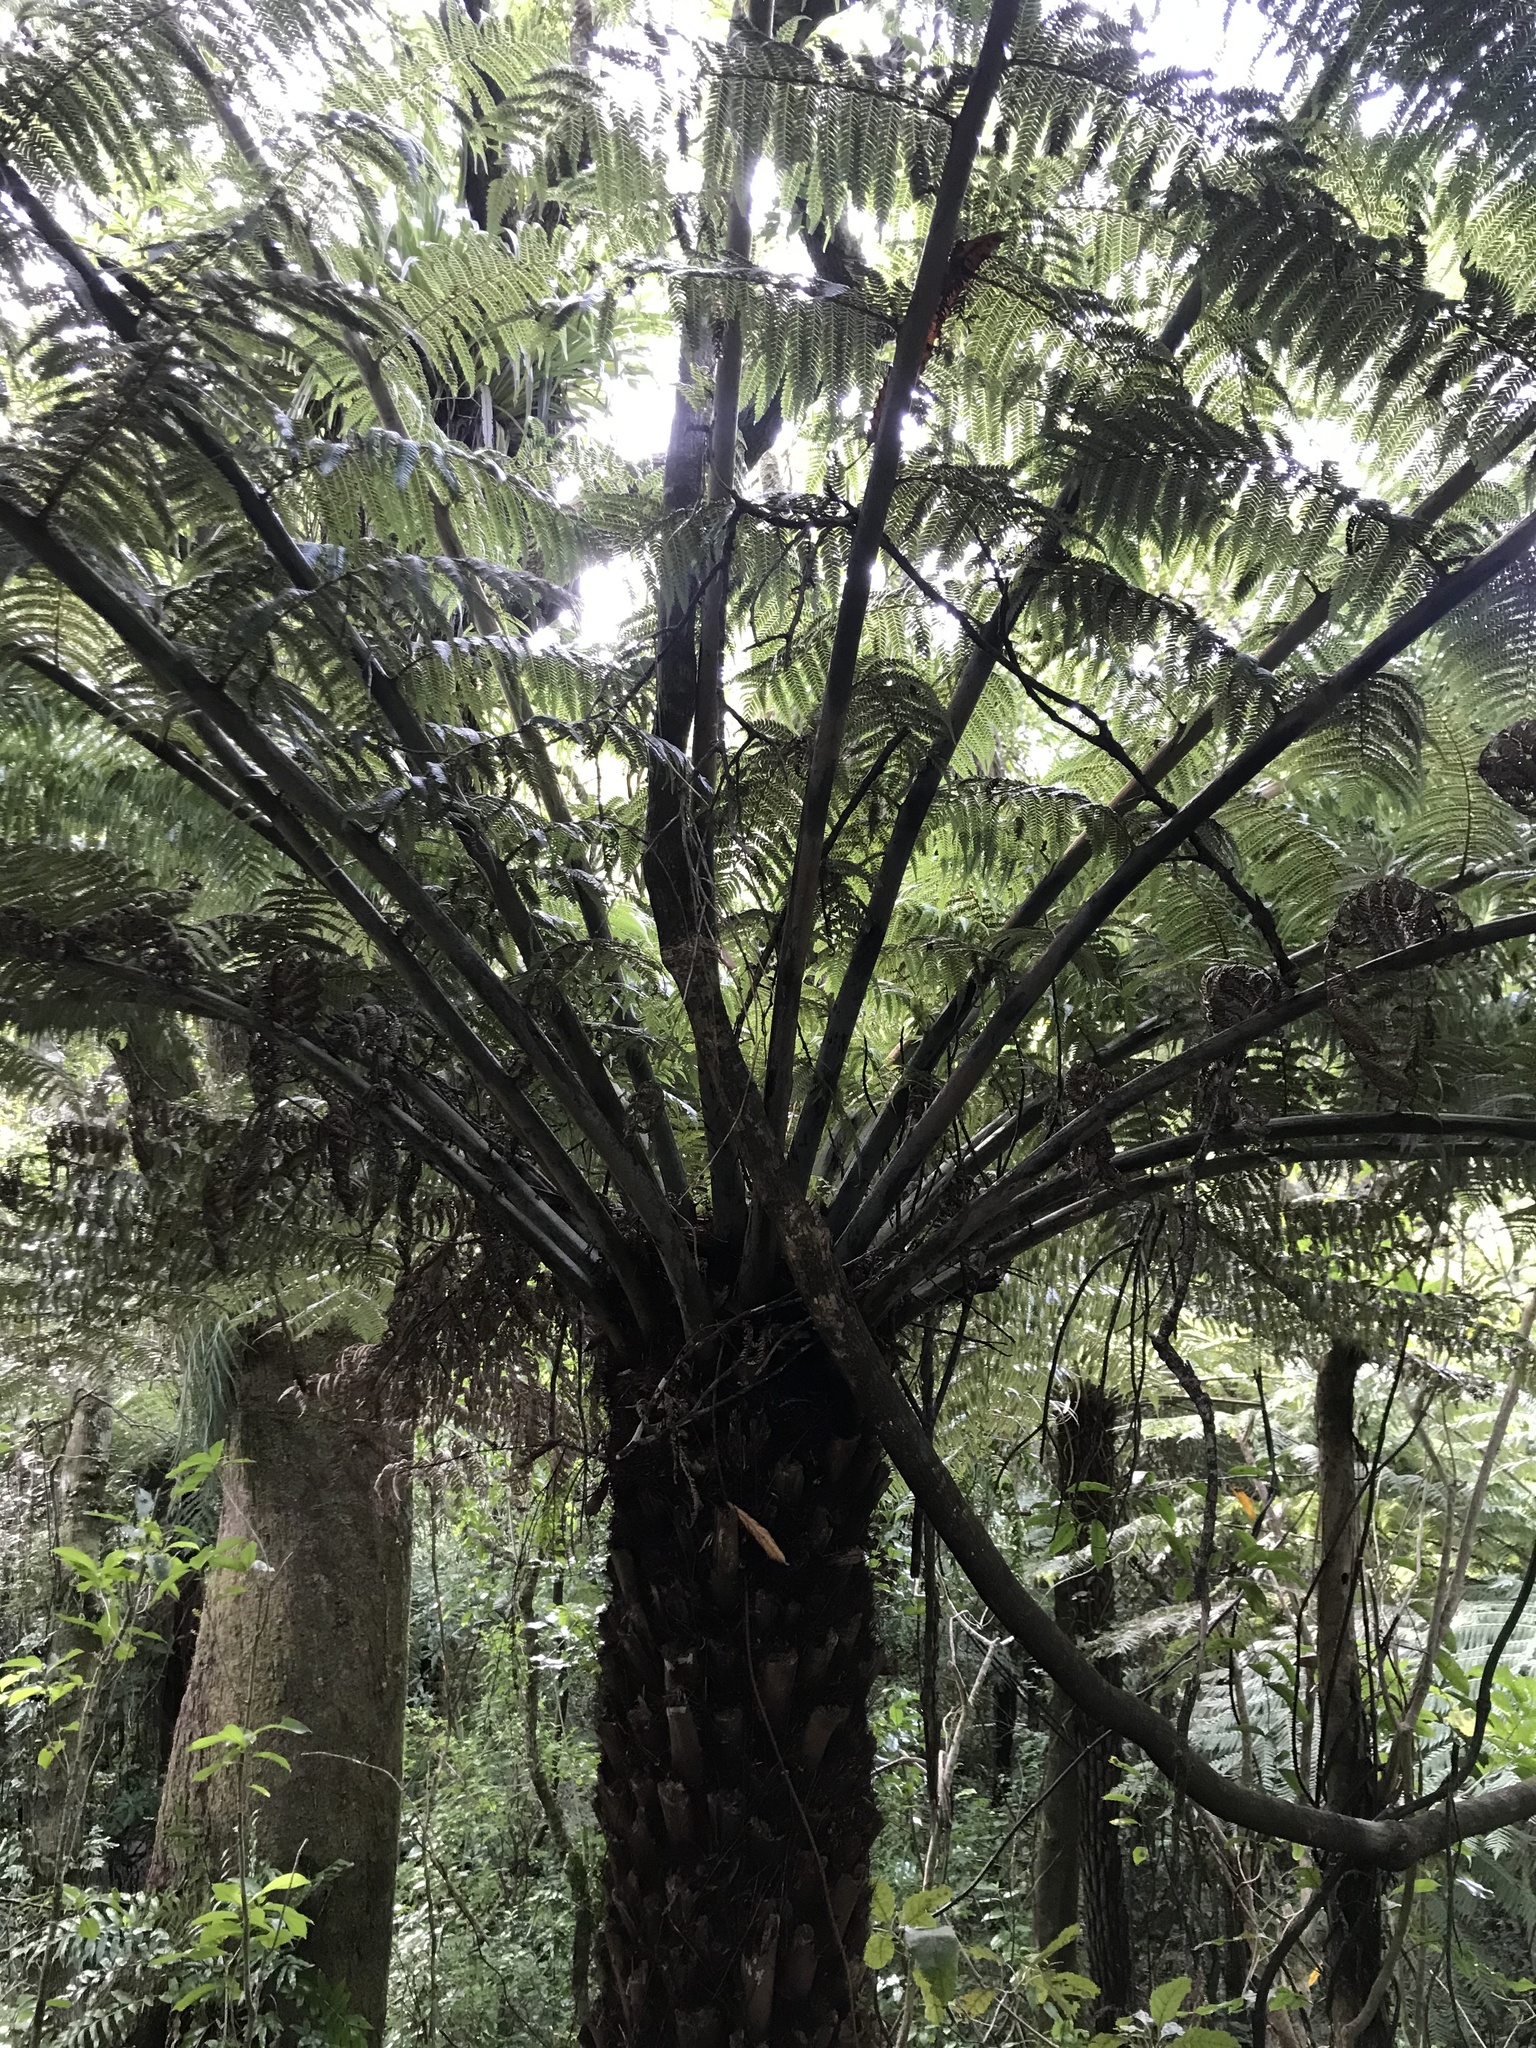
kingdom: Plantae
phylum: Tracheophyta
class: Polypodiopsida
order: Cyatheales
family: Cyatheaceae
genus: Alsophila
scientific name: Alsophila dealbata
